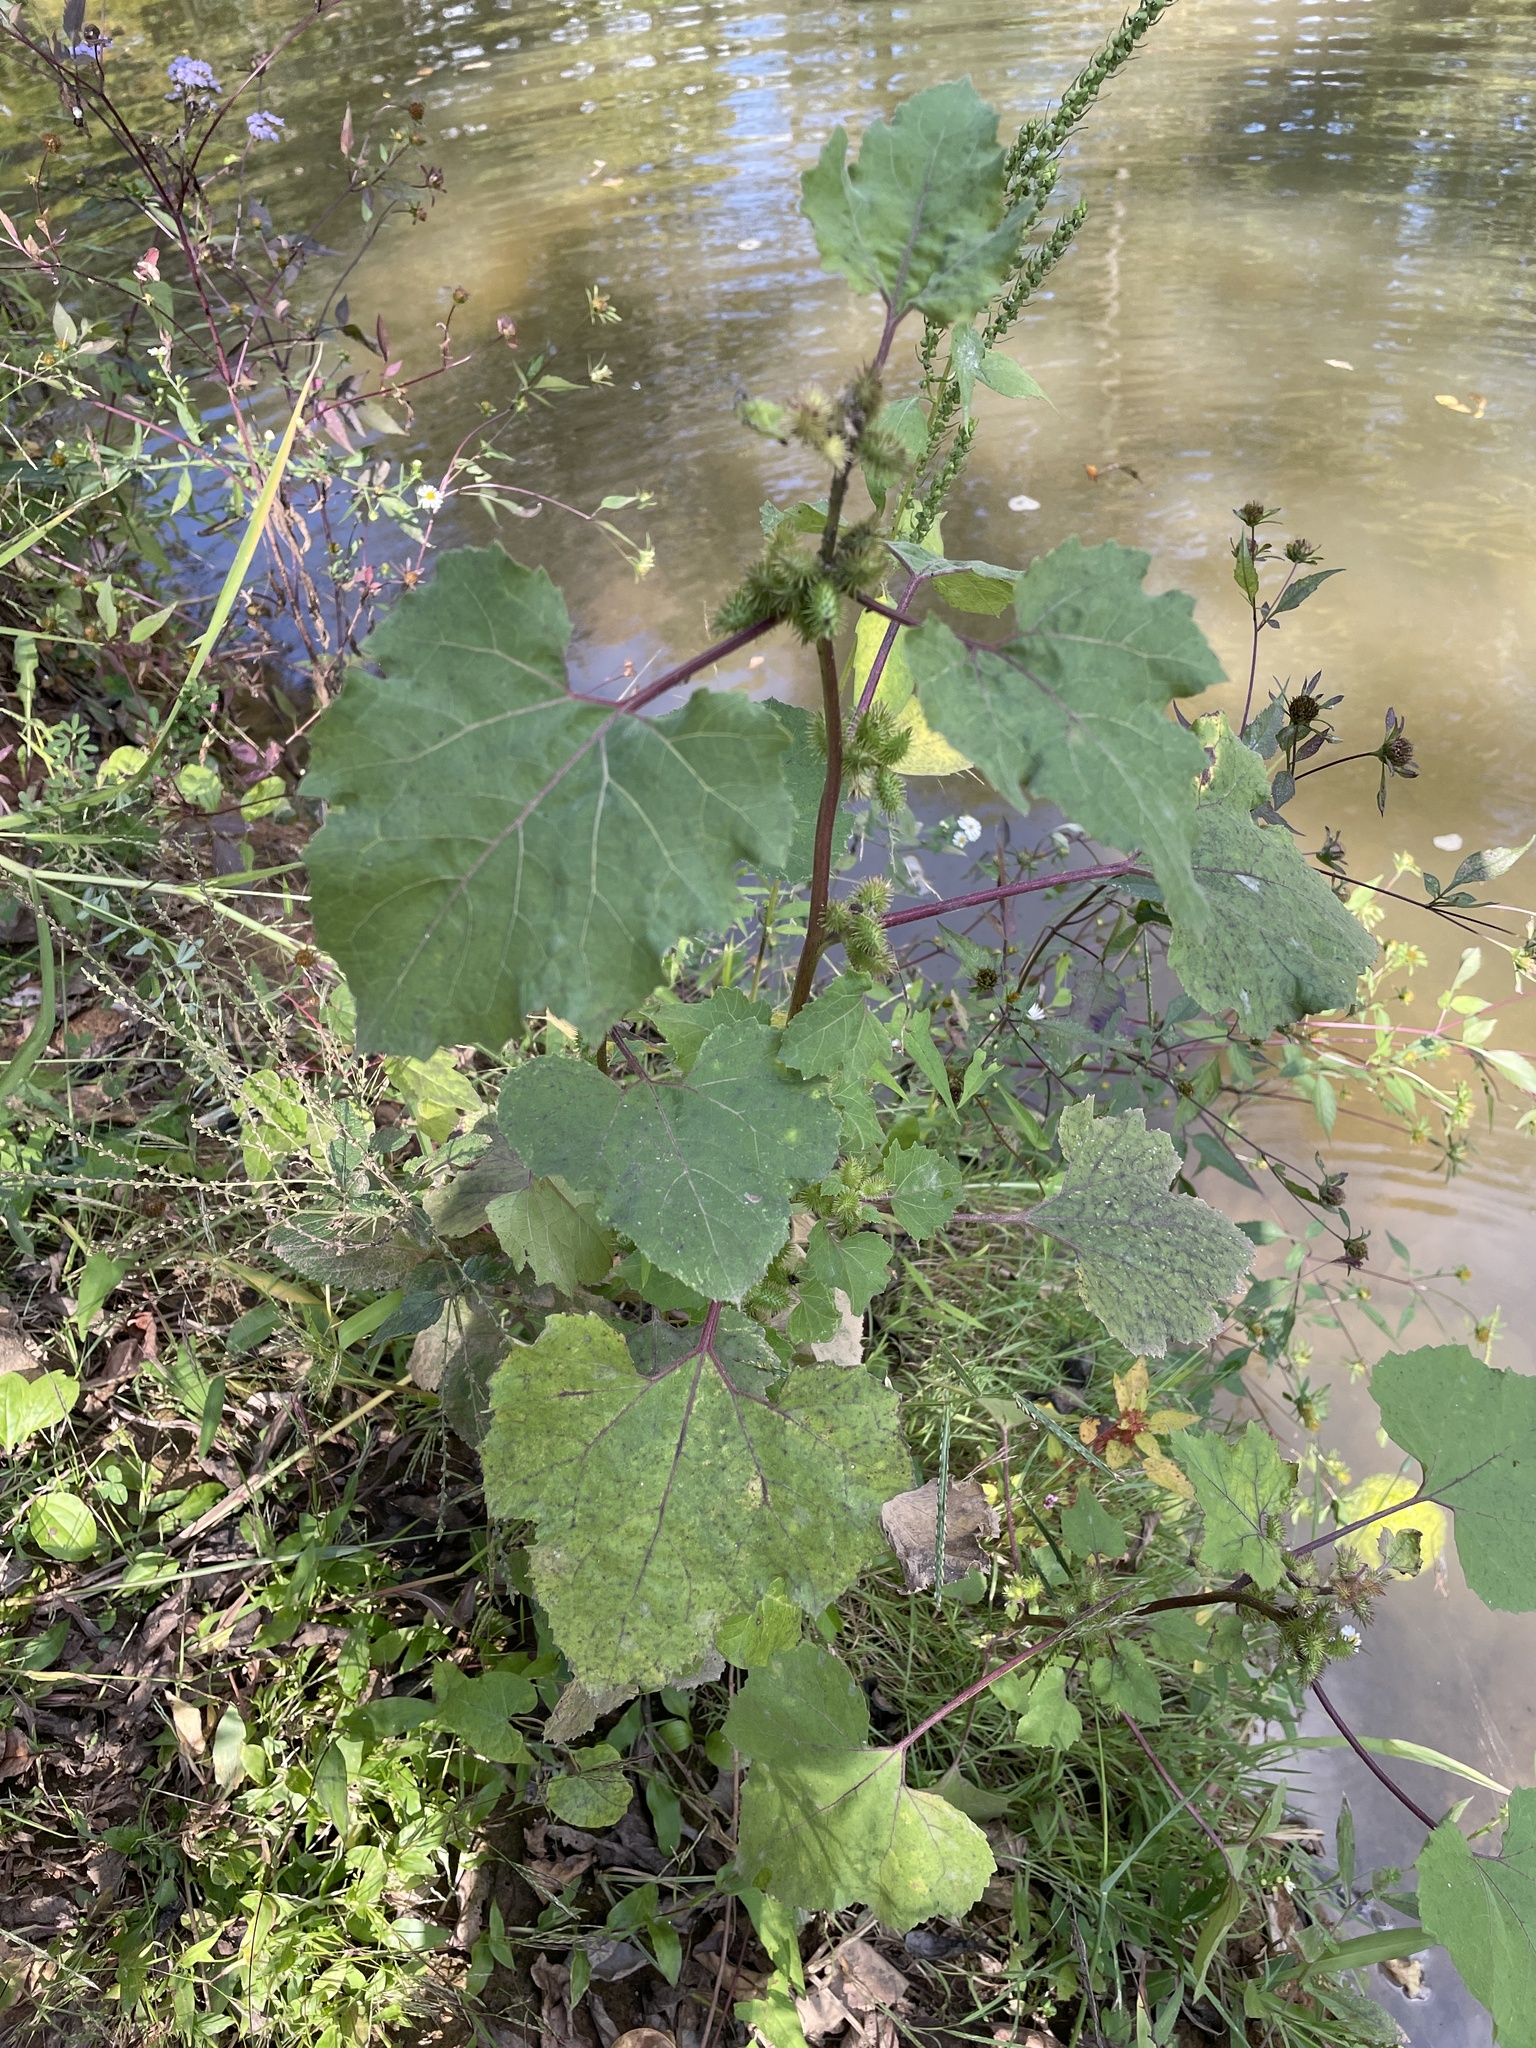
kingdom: Plantae
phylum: Tracheophyta
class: Magnoliopsida
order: Asterales
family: Asteraceae
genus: Xanthium
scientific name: Xanthium strumarium
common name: Rough cocklebur
